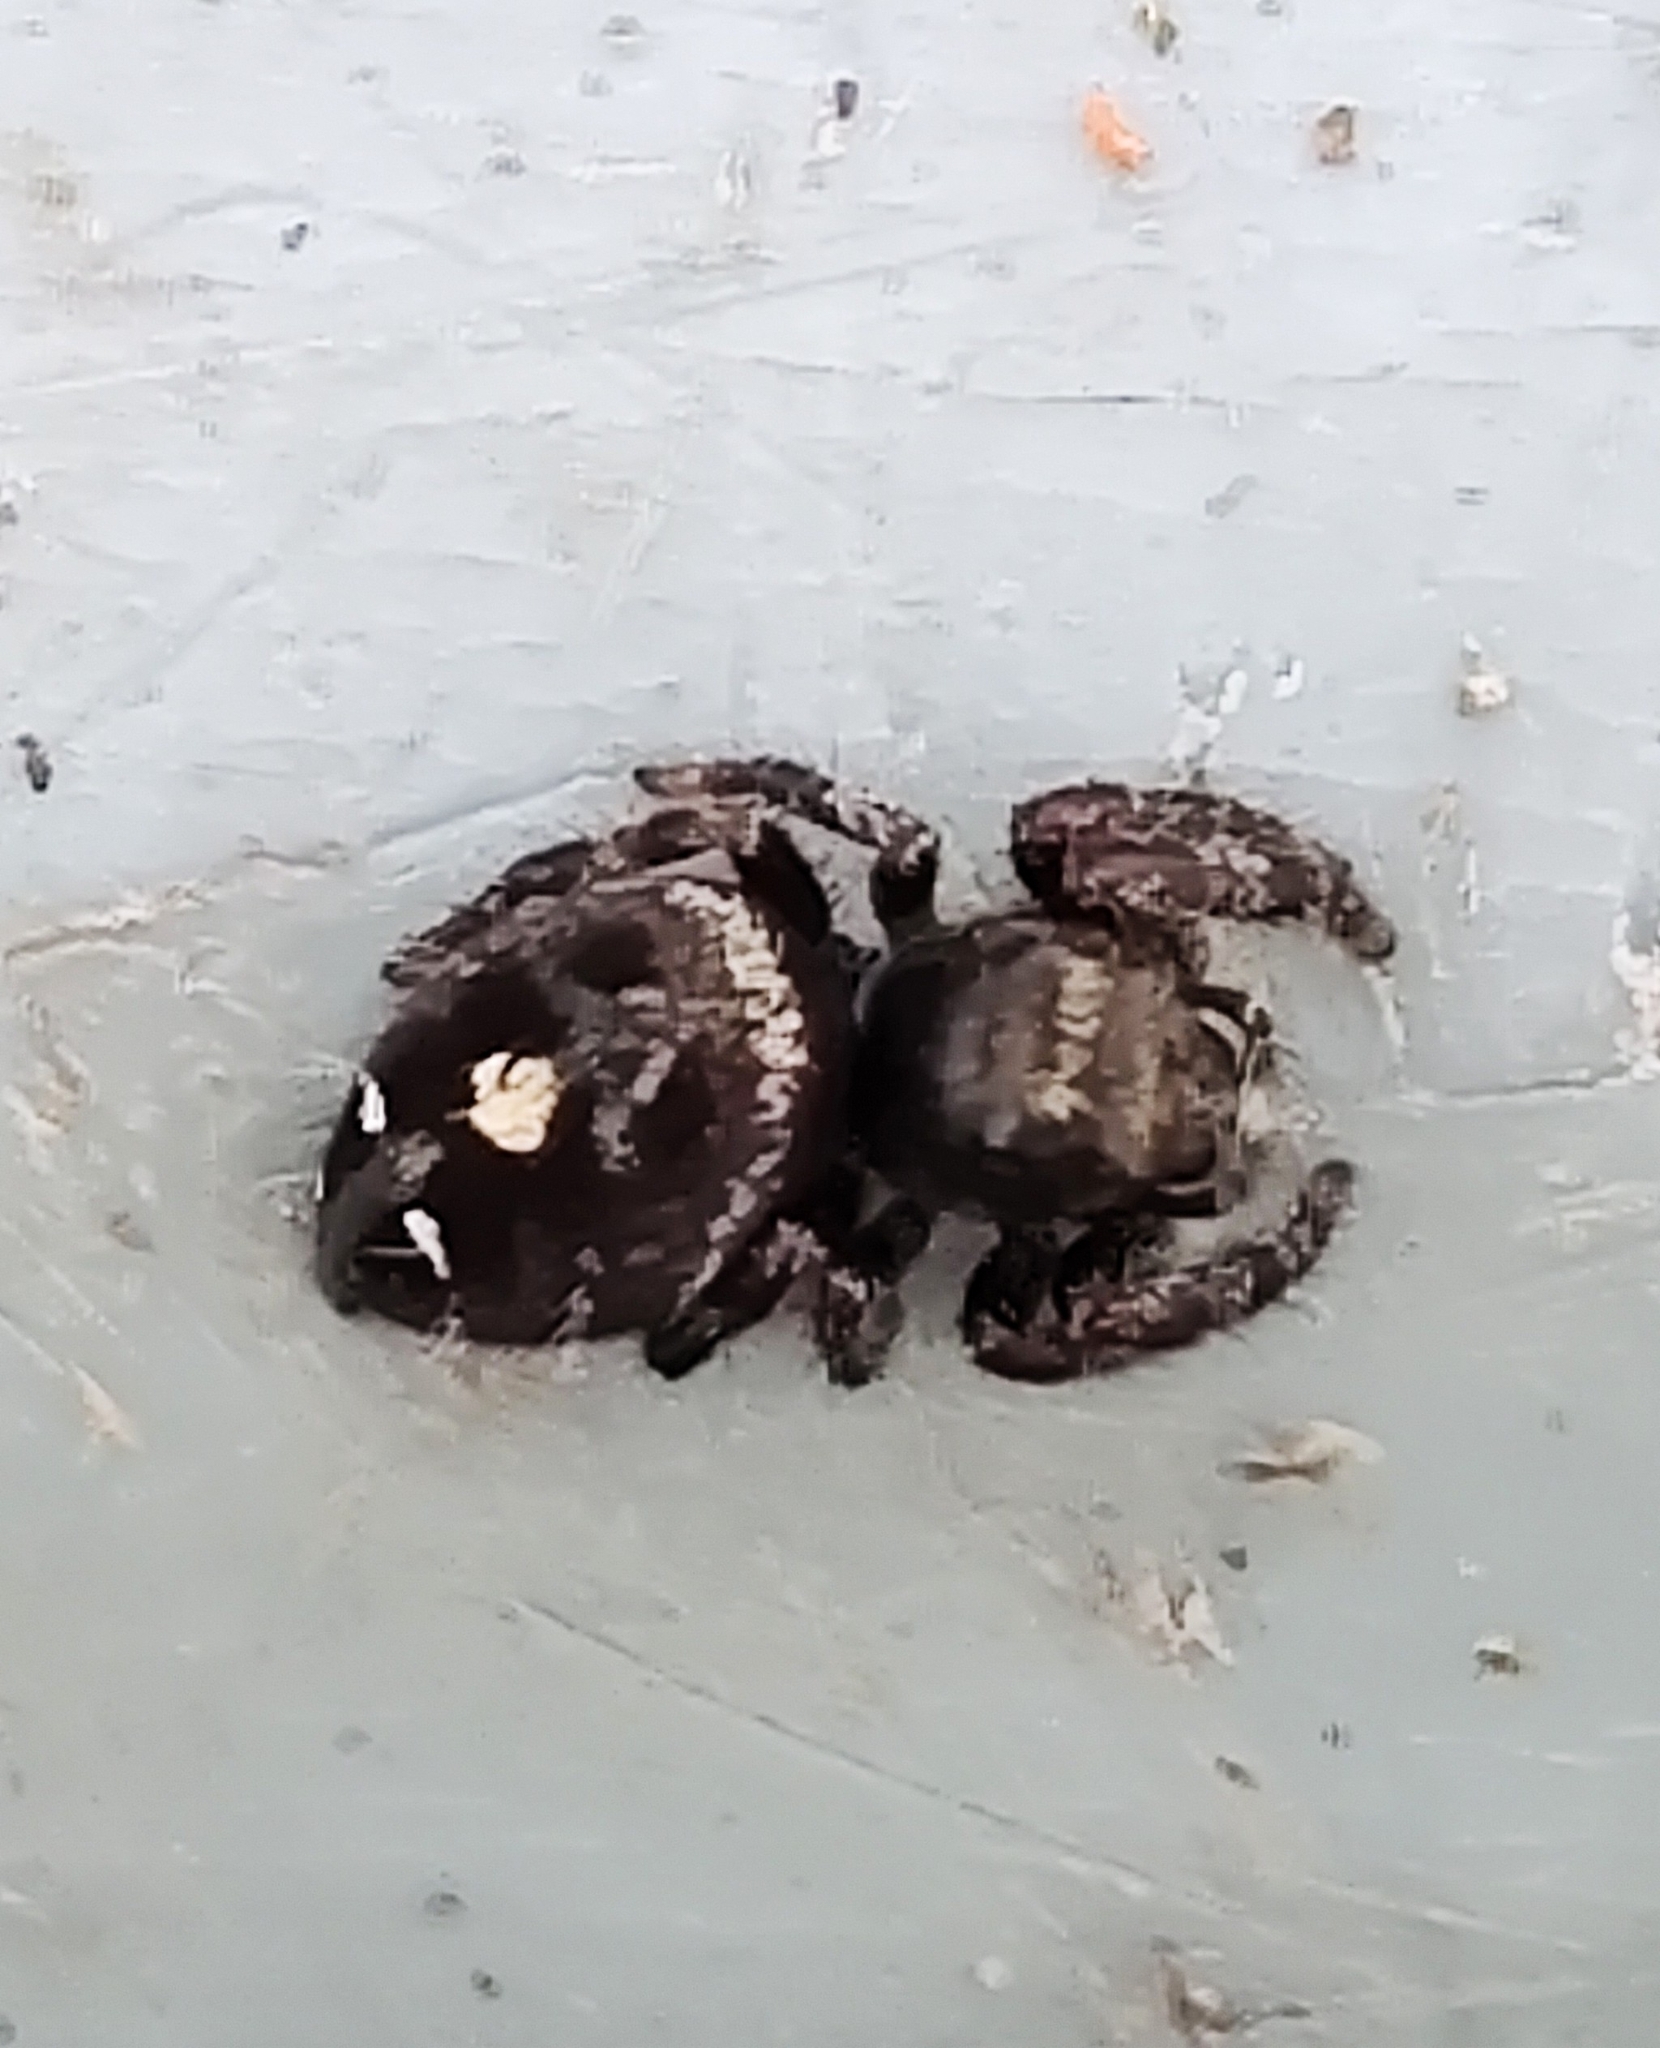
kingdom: Animalia
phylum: Arthropoda
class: Arachnida
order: Araneae
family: Salticidae
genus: Phidippus
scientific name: Phidippus audax
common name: Bold jumper
